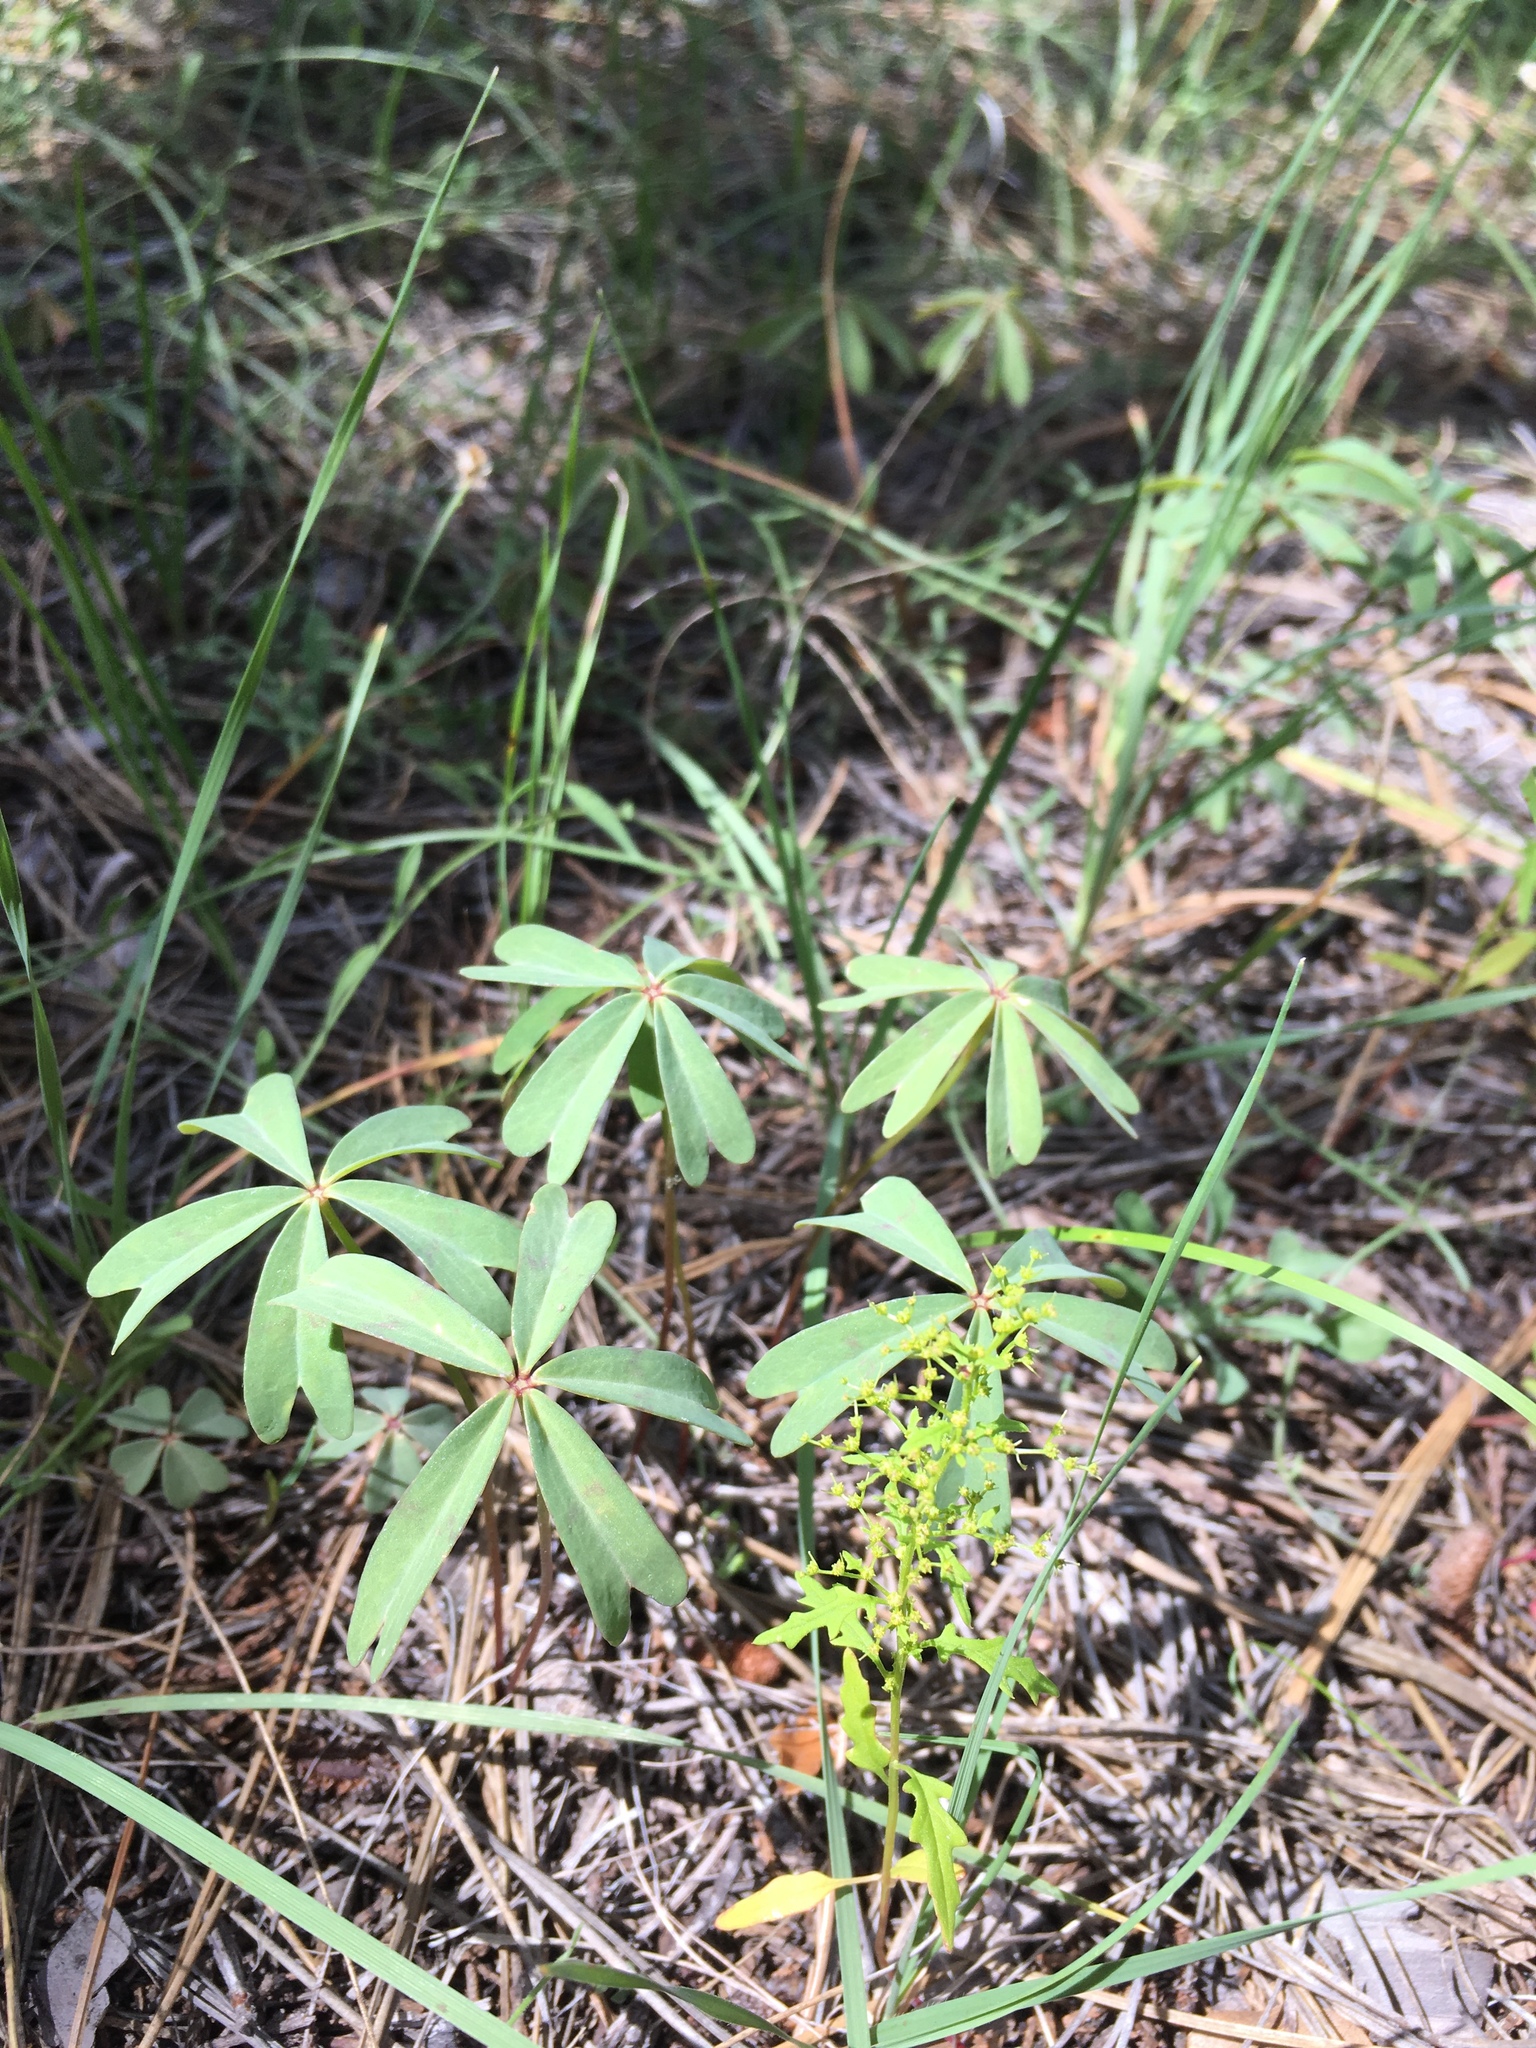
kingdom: Plantae
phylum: Tracheophyta
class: Magnoliopsida
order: Oxalidales
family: Oxalidaceae
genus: Oxalis
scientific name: Oxalis decaphylla
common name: Ten-leaved pink-sorrel
